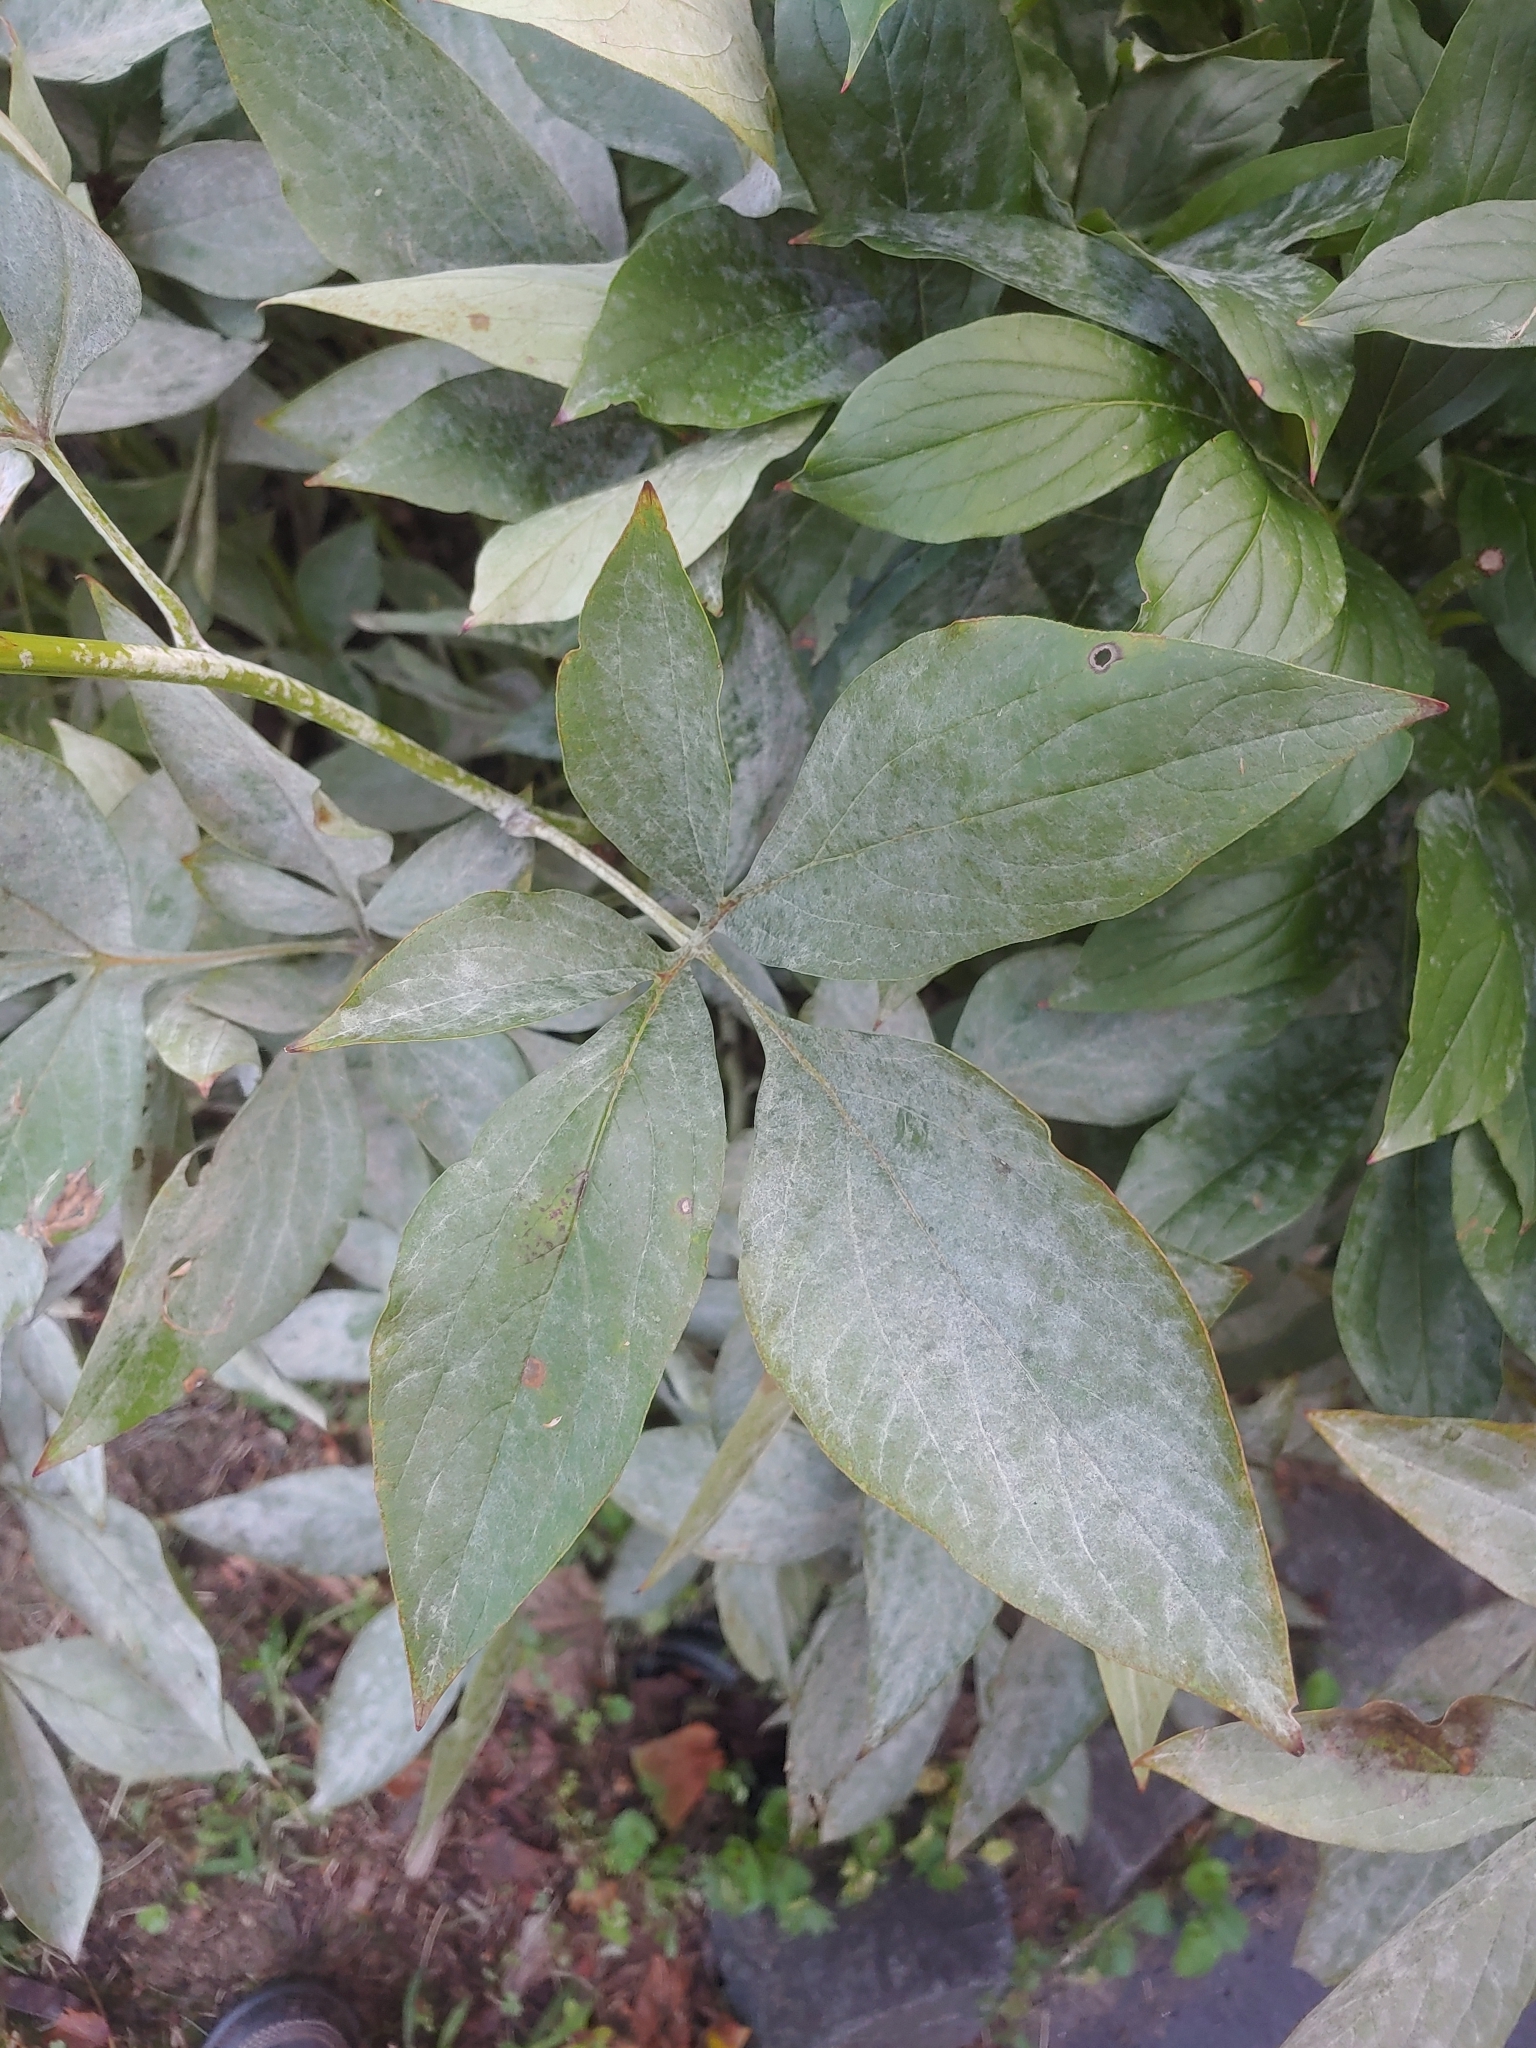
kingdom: Fungi
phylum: Ascomycota
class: Leotiomycetes
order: Helotiales
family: Erysiphaceae
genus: Erysiphe
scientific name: Erysiphe paeoniae
